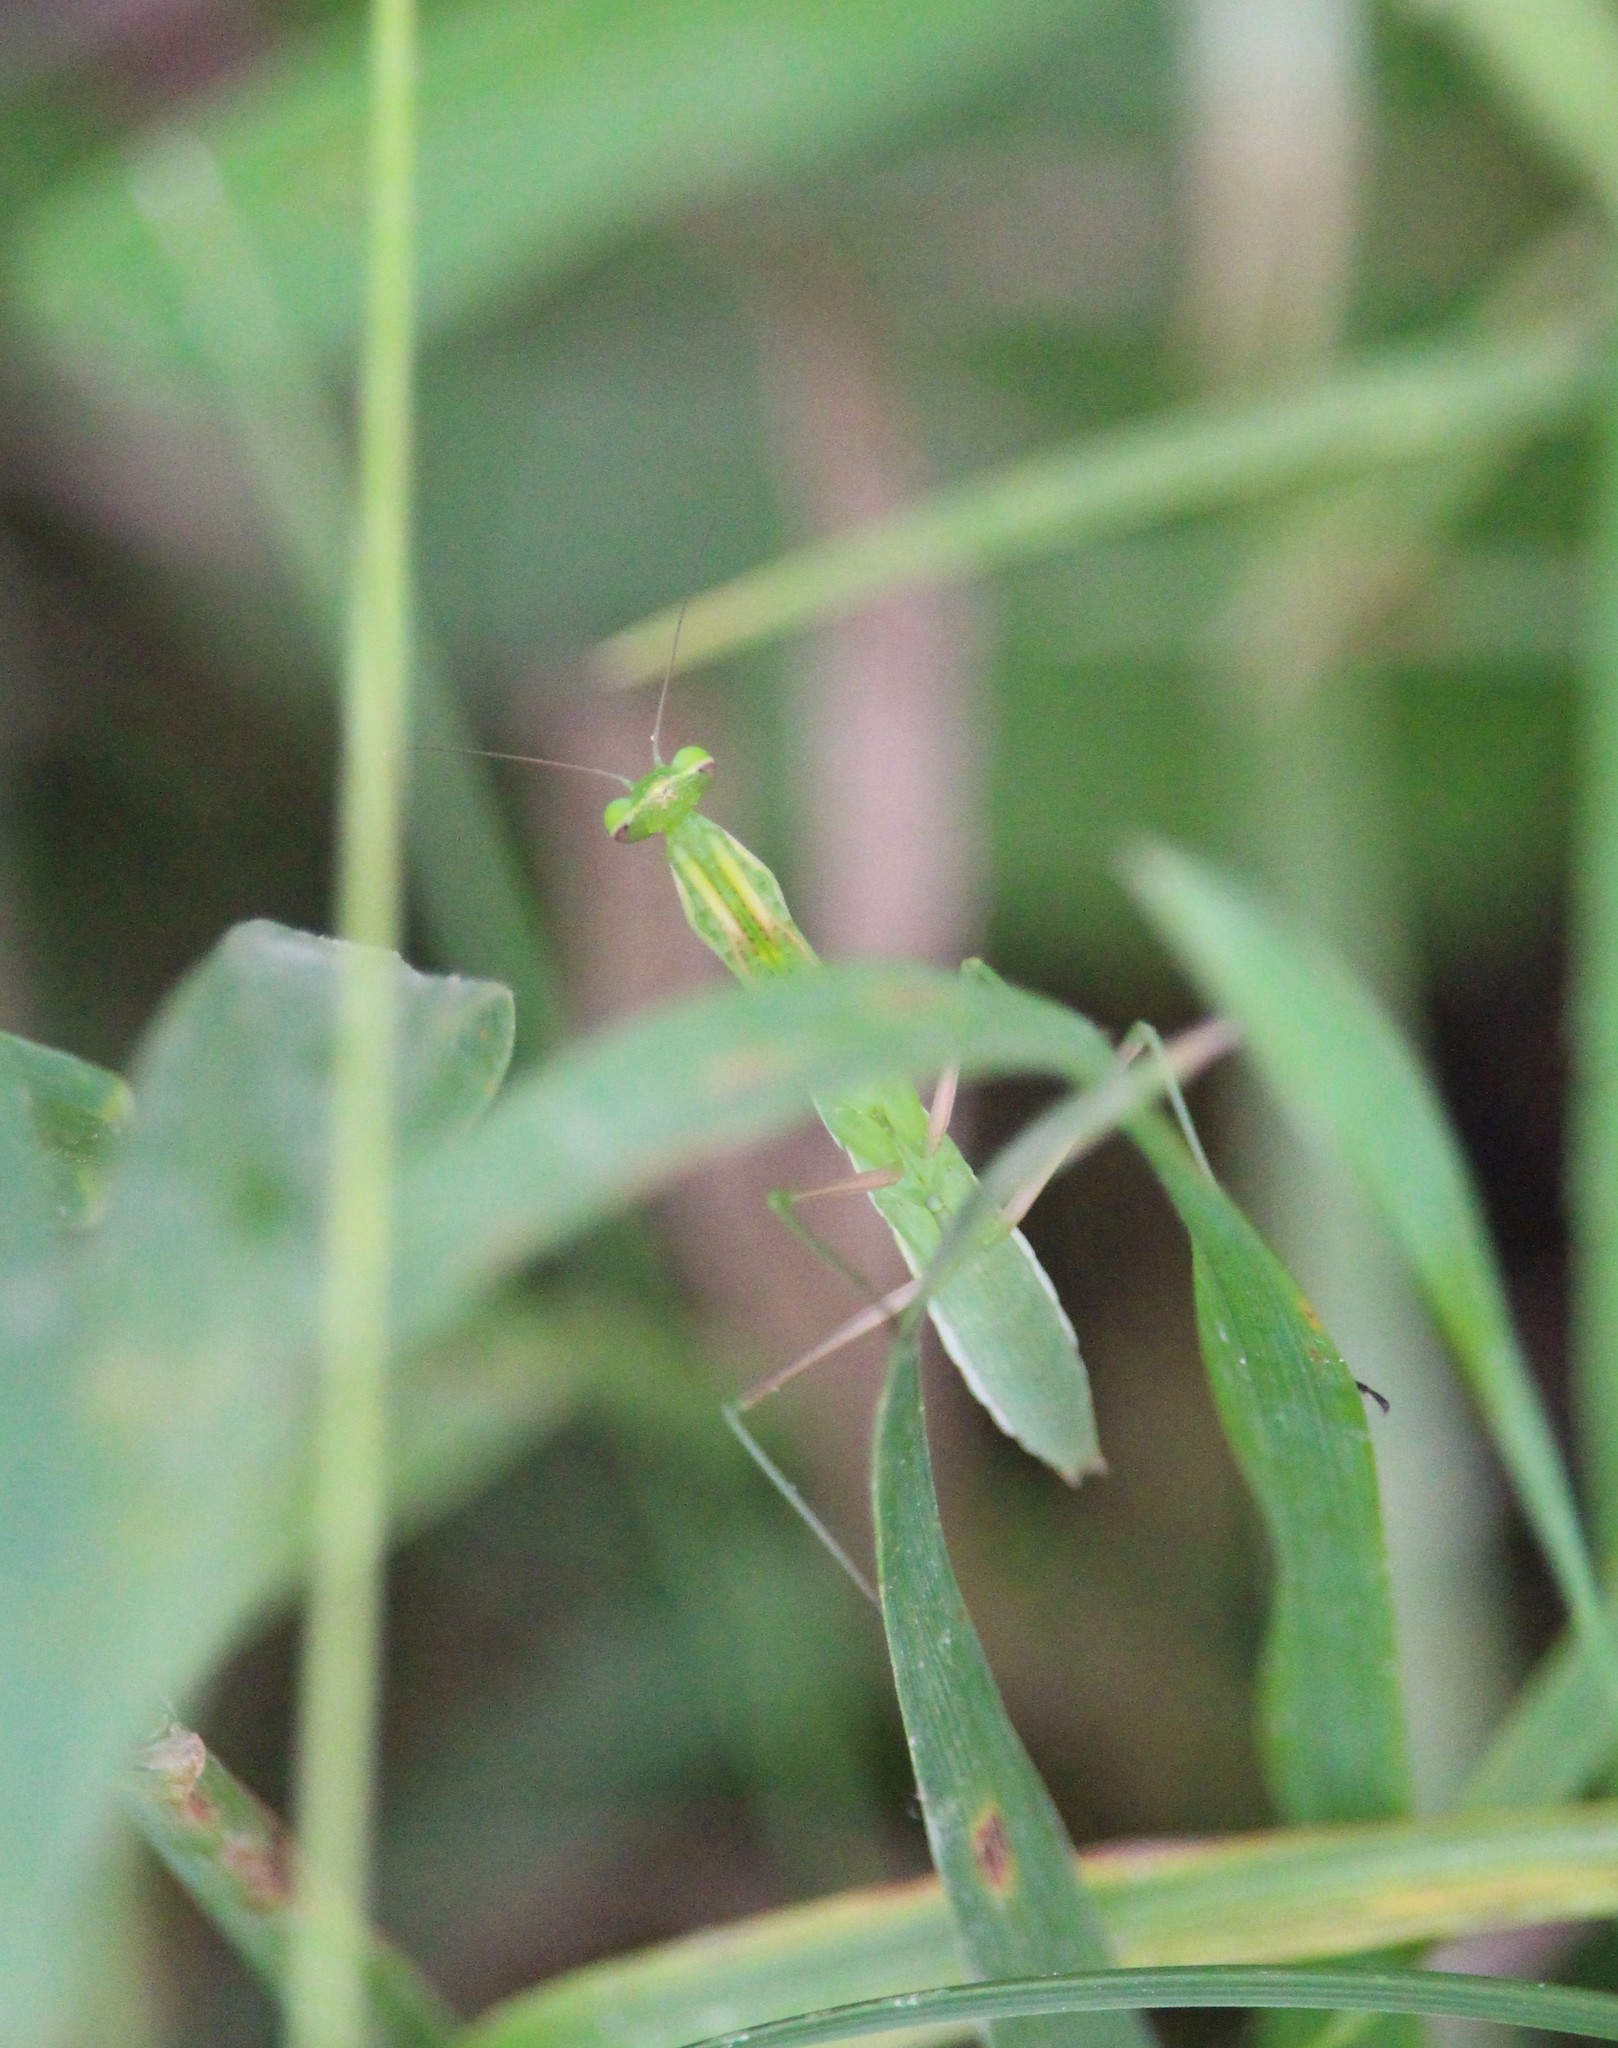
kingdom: Animalia
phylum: Arthropoda
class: Insecta
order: Mantodea
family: Mantidae
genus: Mantis
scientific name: Mantis religiosa
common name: Praying mantis
